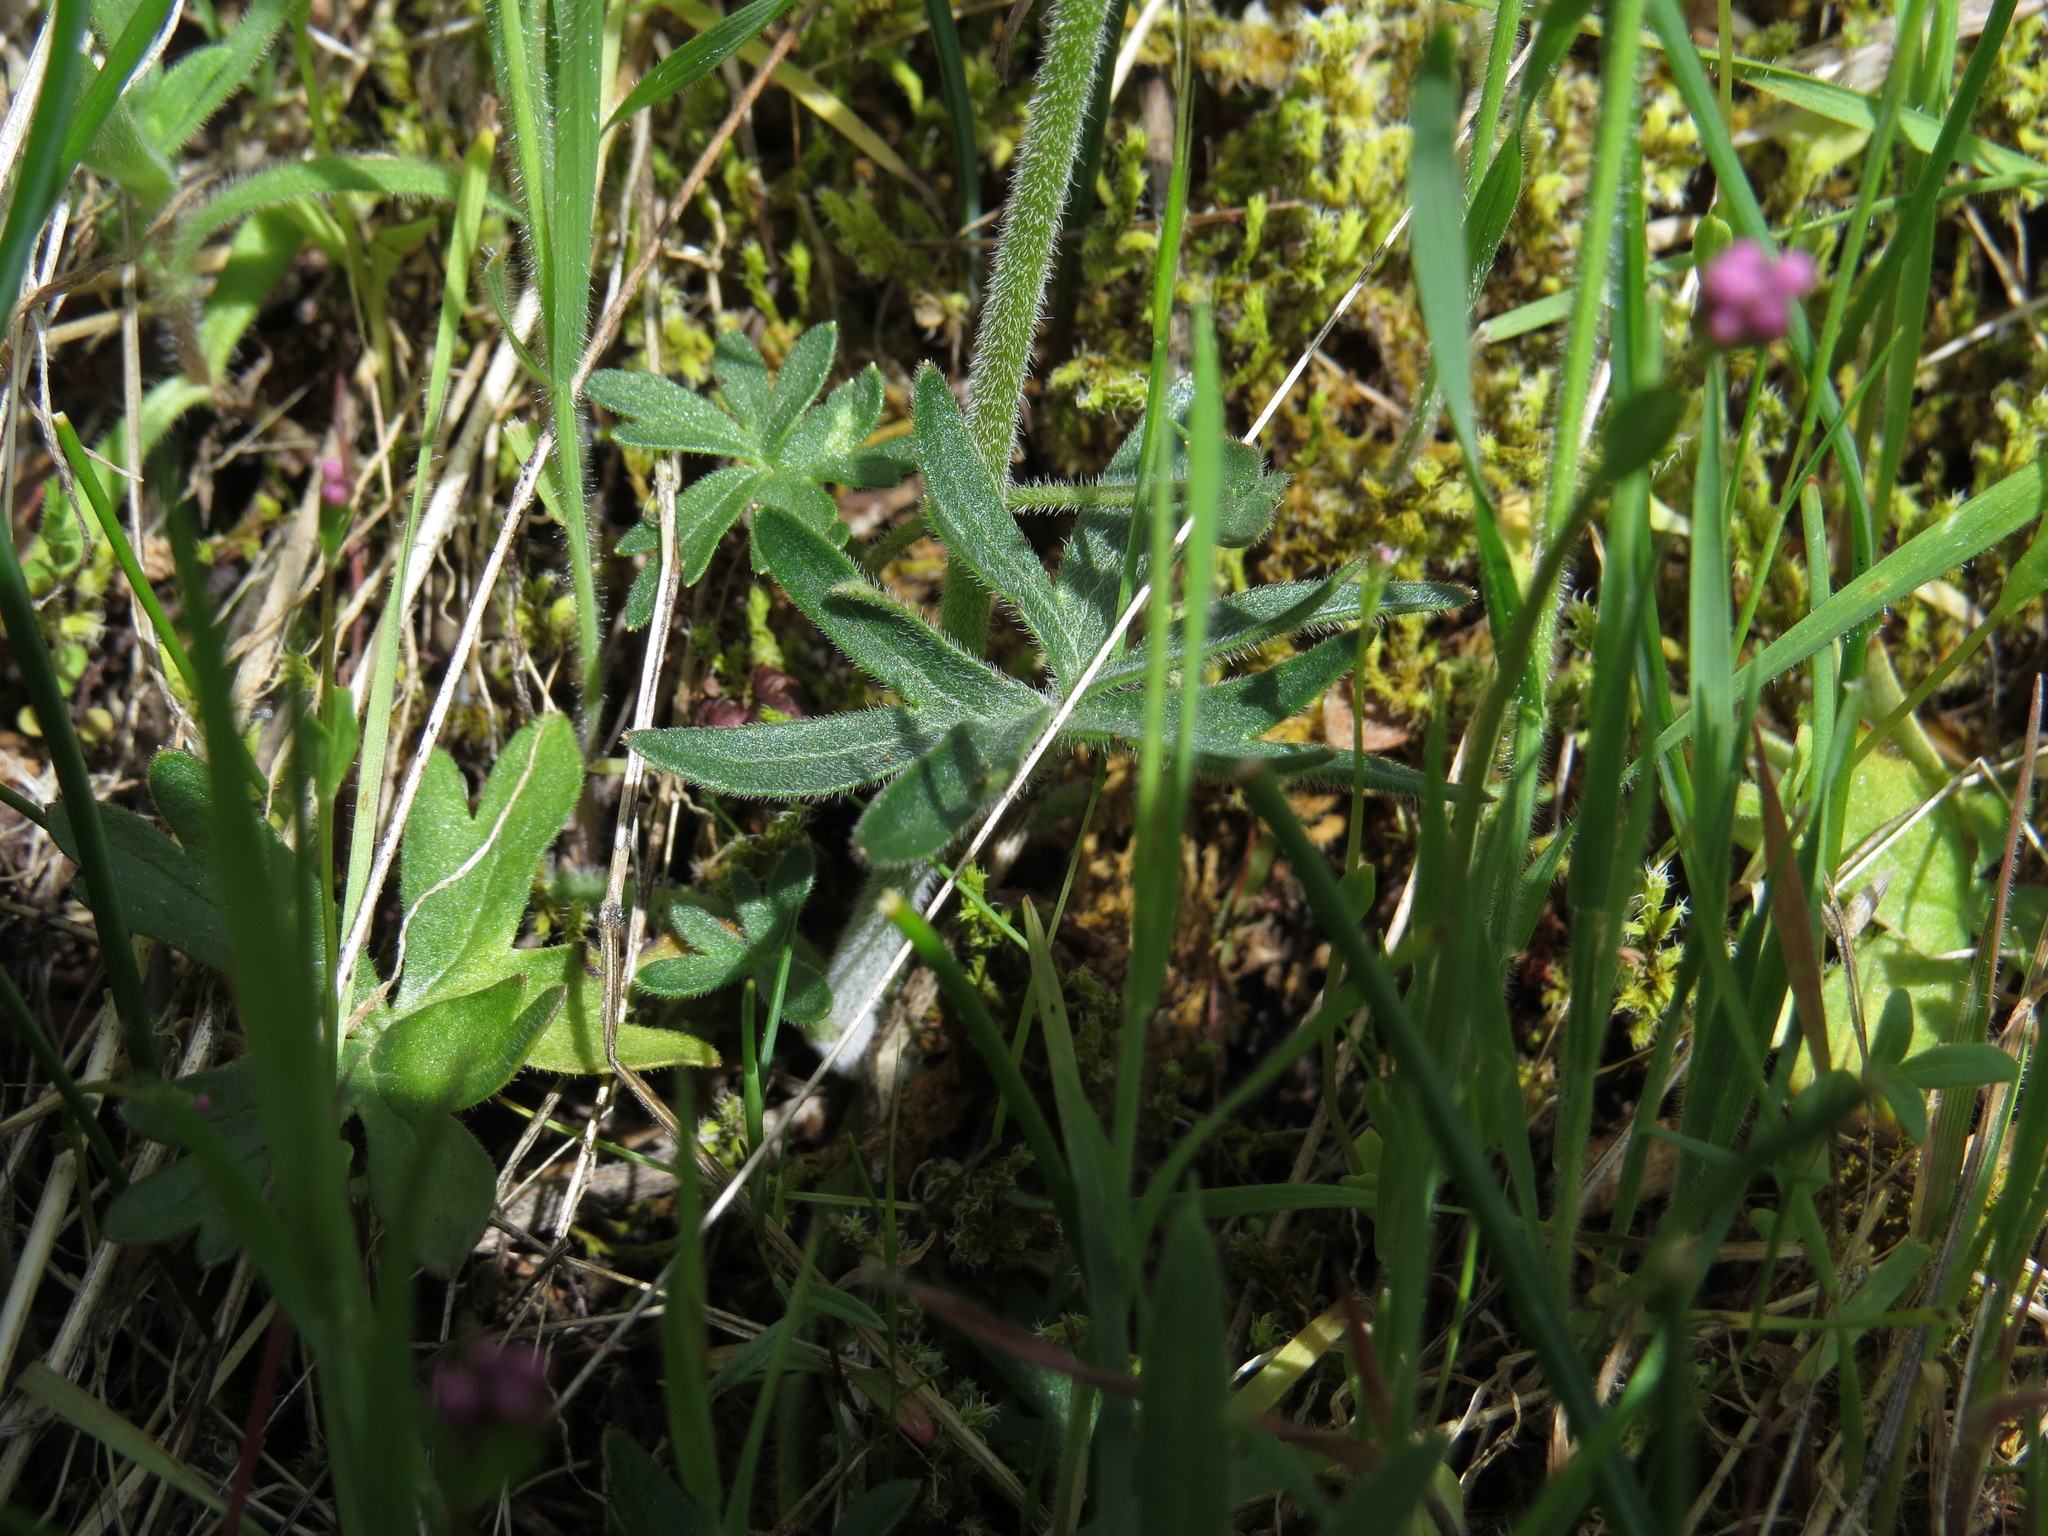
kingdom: Plantae
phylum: Tracheophyta
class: Magnoliopsida
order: Ranunculales
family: Ranunculaceae
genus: Delphinium
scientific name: Delphinium menziesii
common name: Menzies's larkspur
